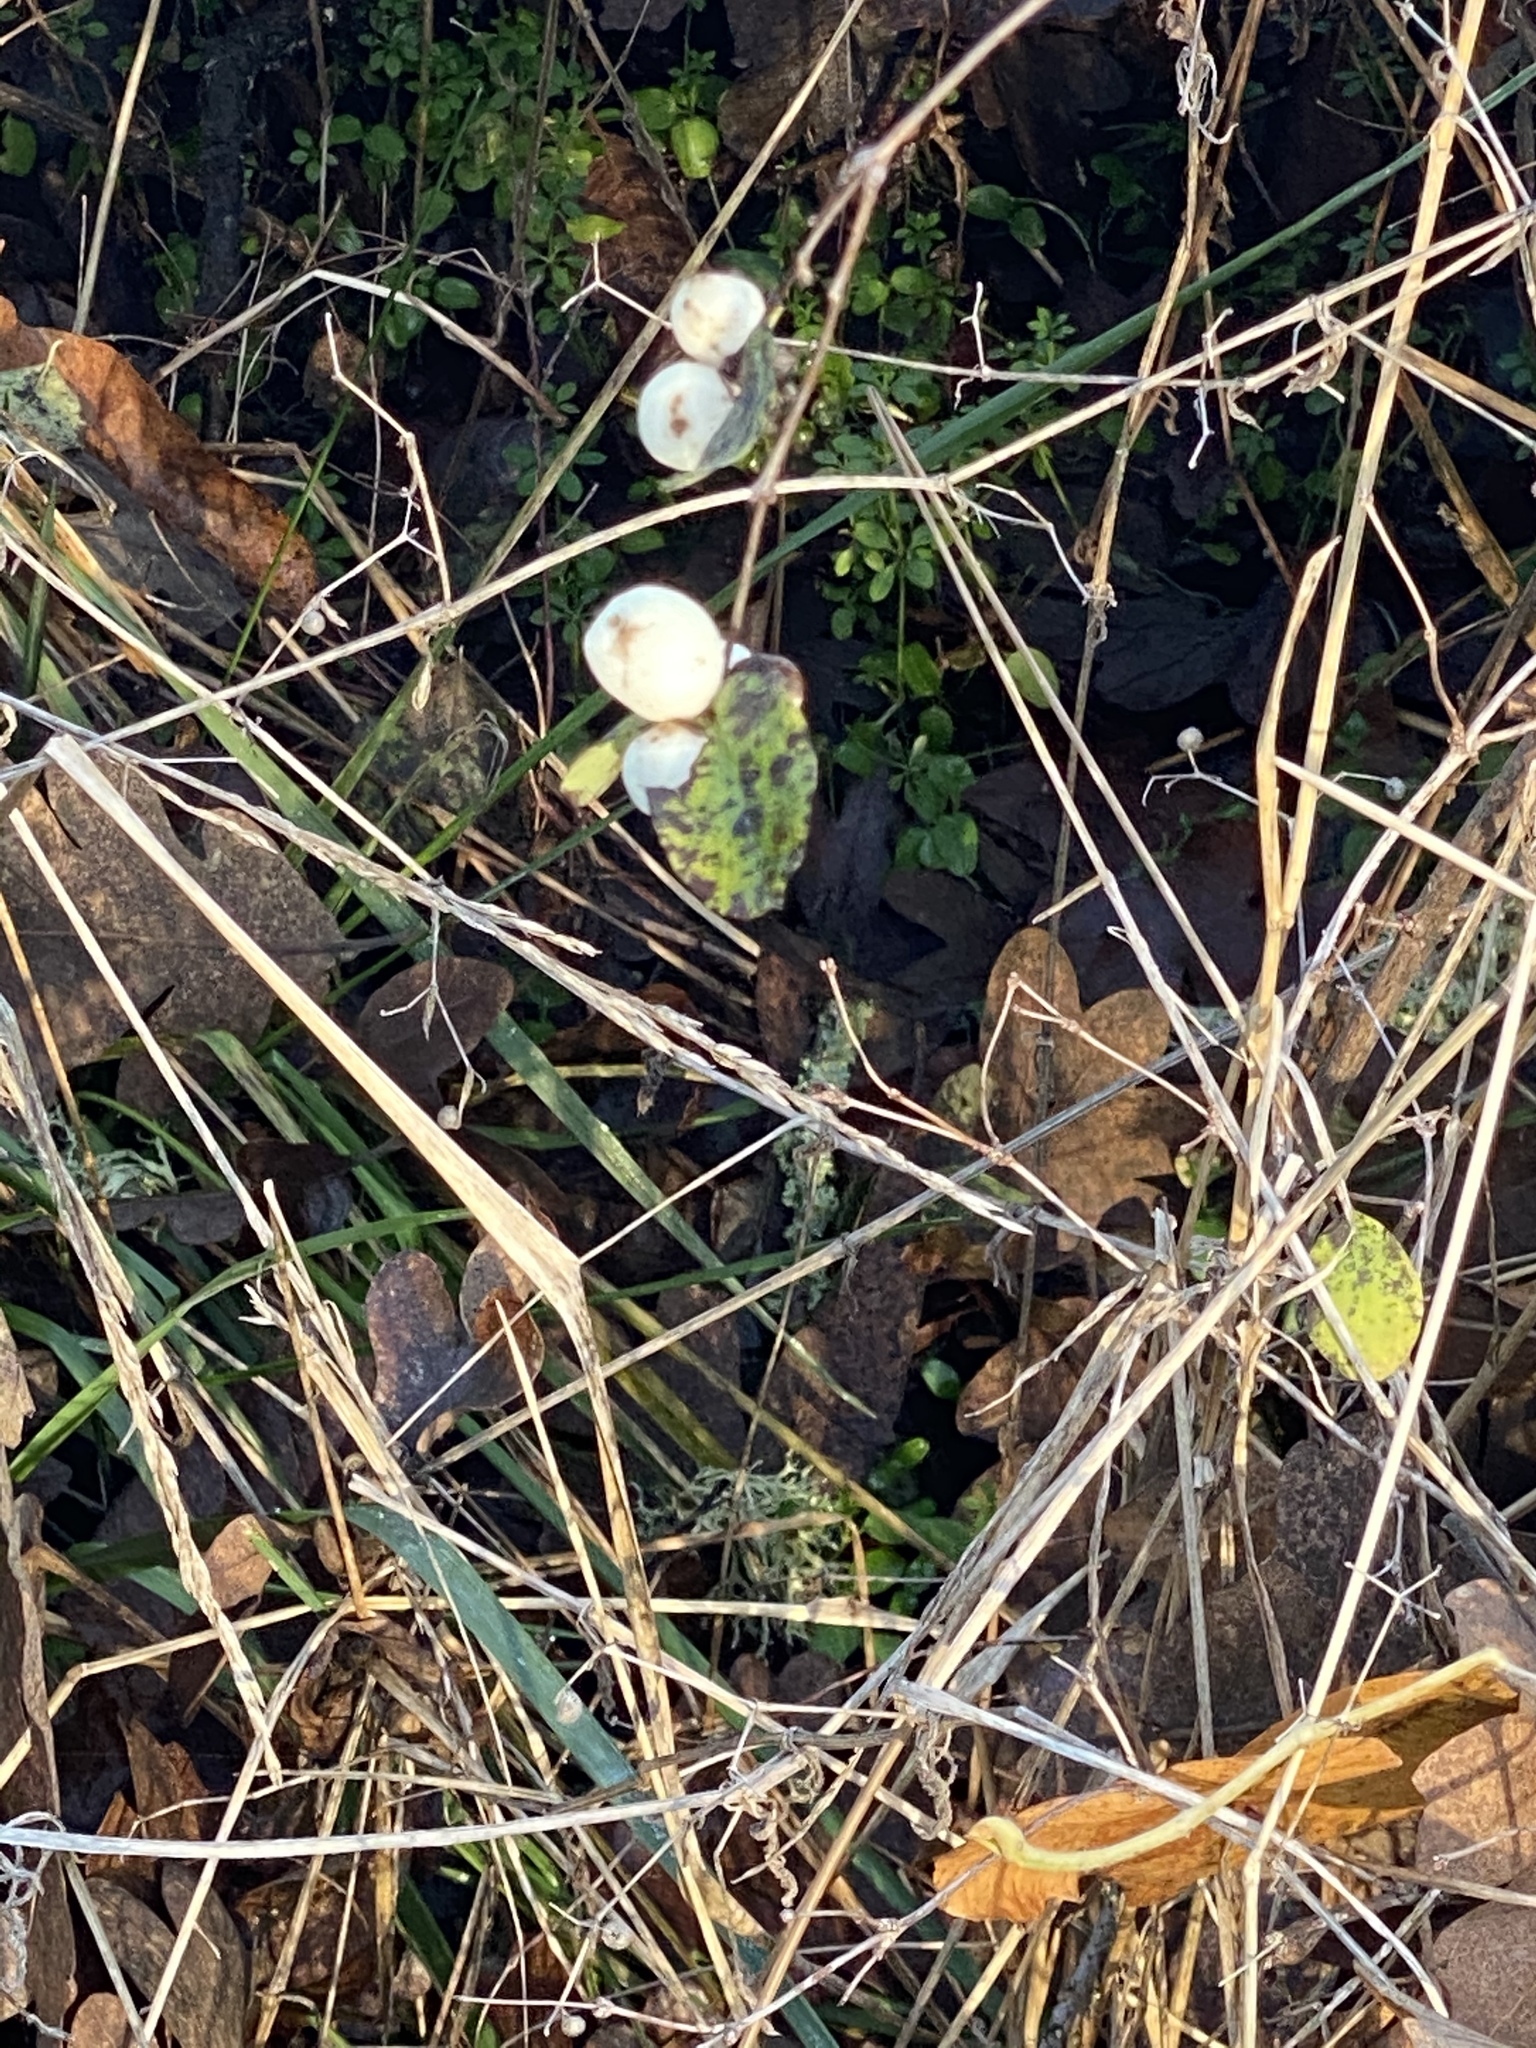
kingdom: Plantae
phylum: Tracheophyta
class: Magnoliopsida
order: Dipsacales
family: Caprifoliaceae
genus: Symphoricarpos
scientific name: Symphoricarpos albus
